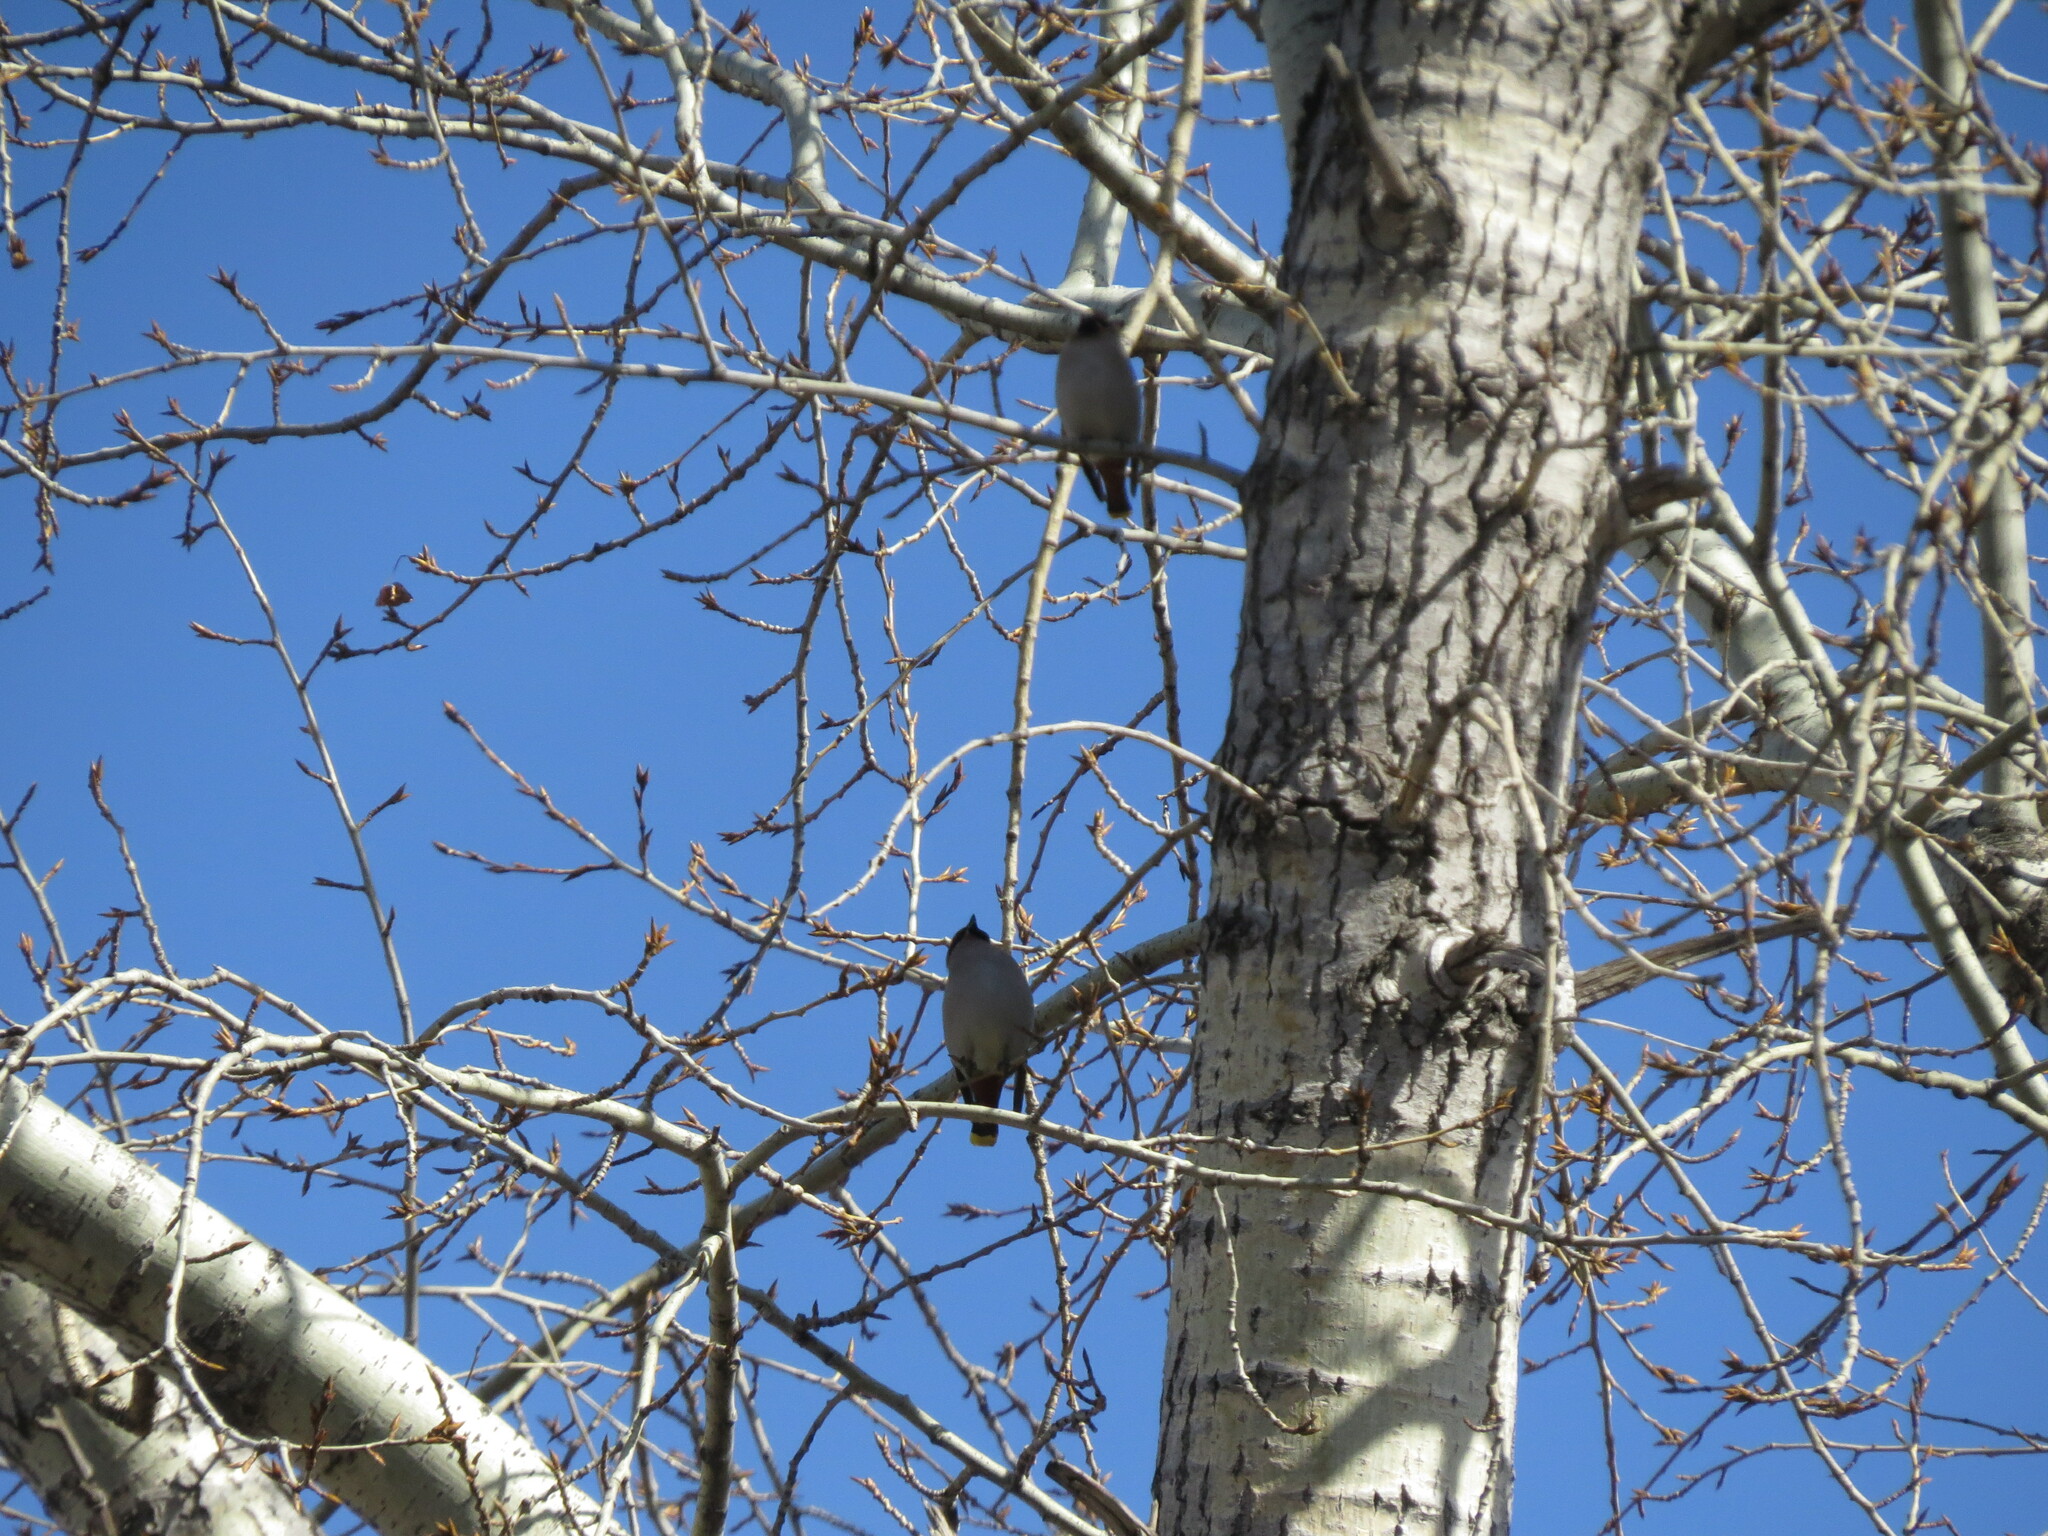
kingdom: Animalia
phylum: Chordata
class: Aves
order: Passeriformes
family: Bombycillidae
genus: Bombycilla
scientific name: Bombycilla garrulus
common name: Bohemian waxwing
